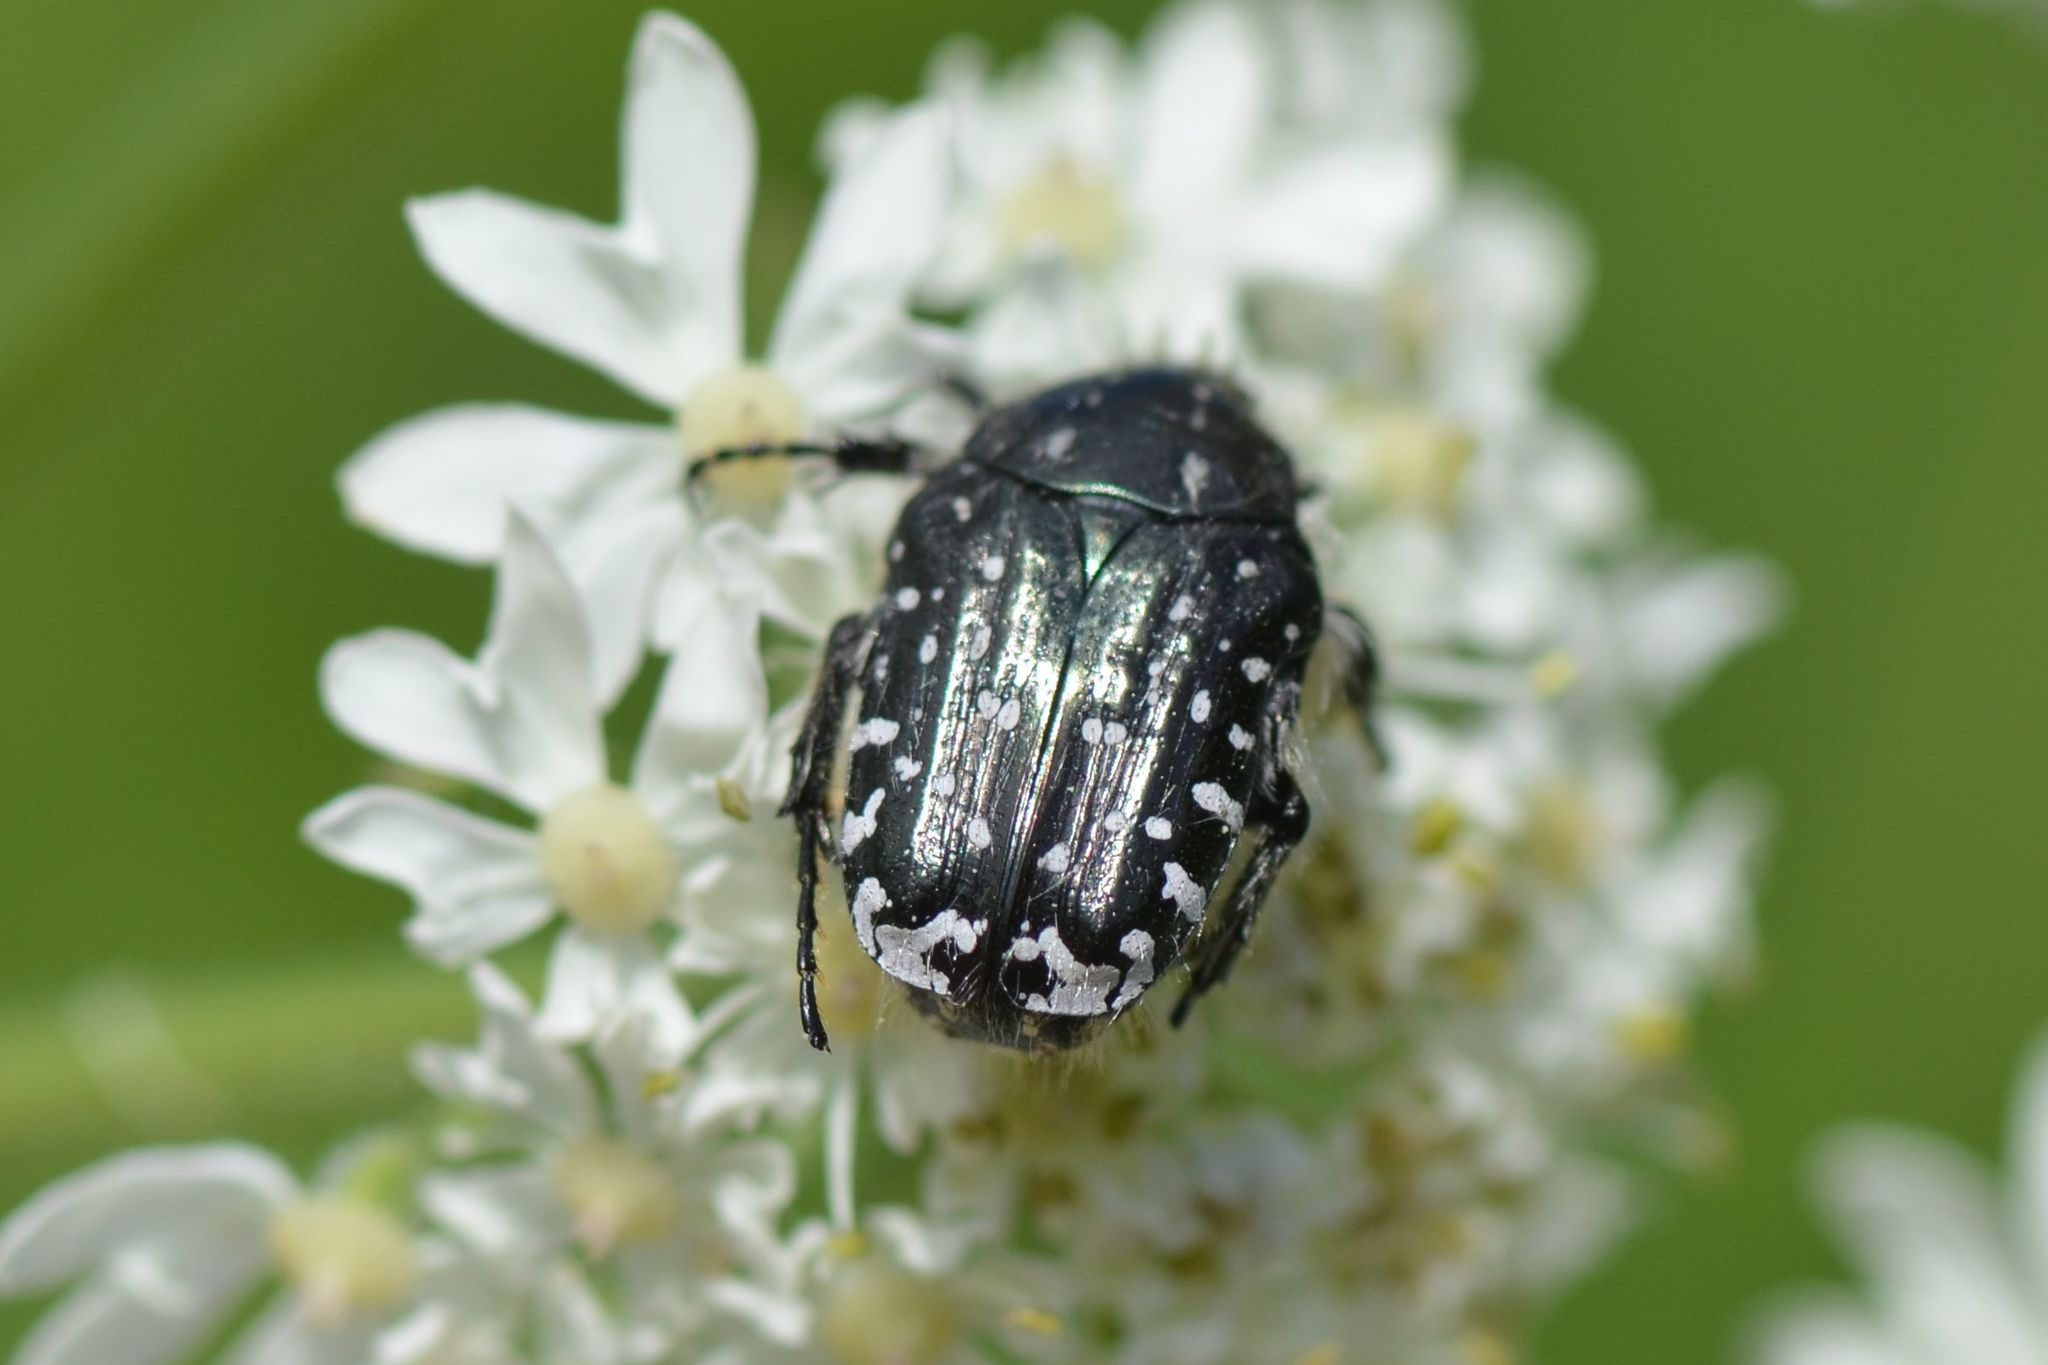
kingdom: Animalia
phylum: Arthropoda
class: Insecta
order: Coleoptera
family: Scarabaeidae
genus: Oxythyrea
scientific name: Oxythyrea funesta
